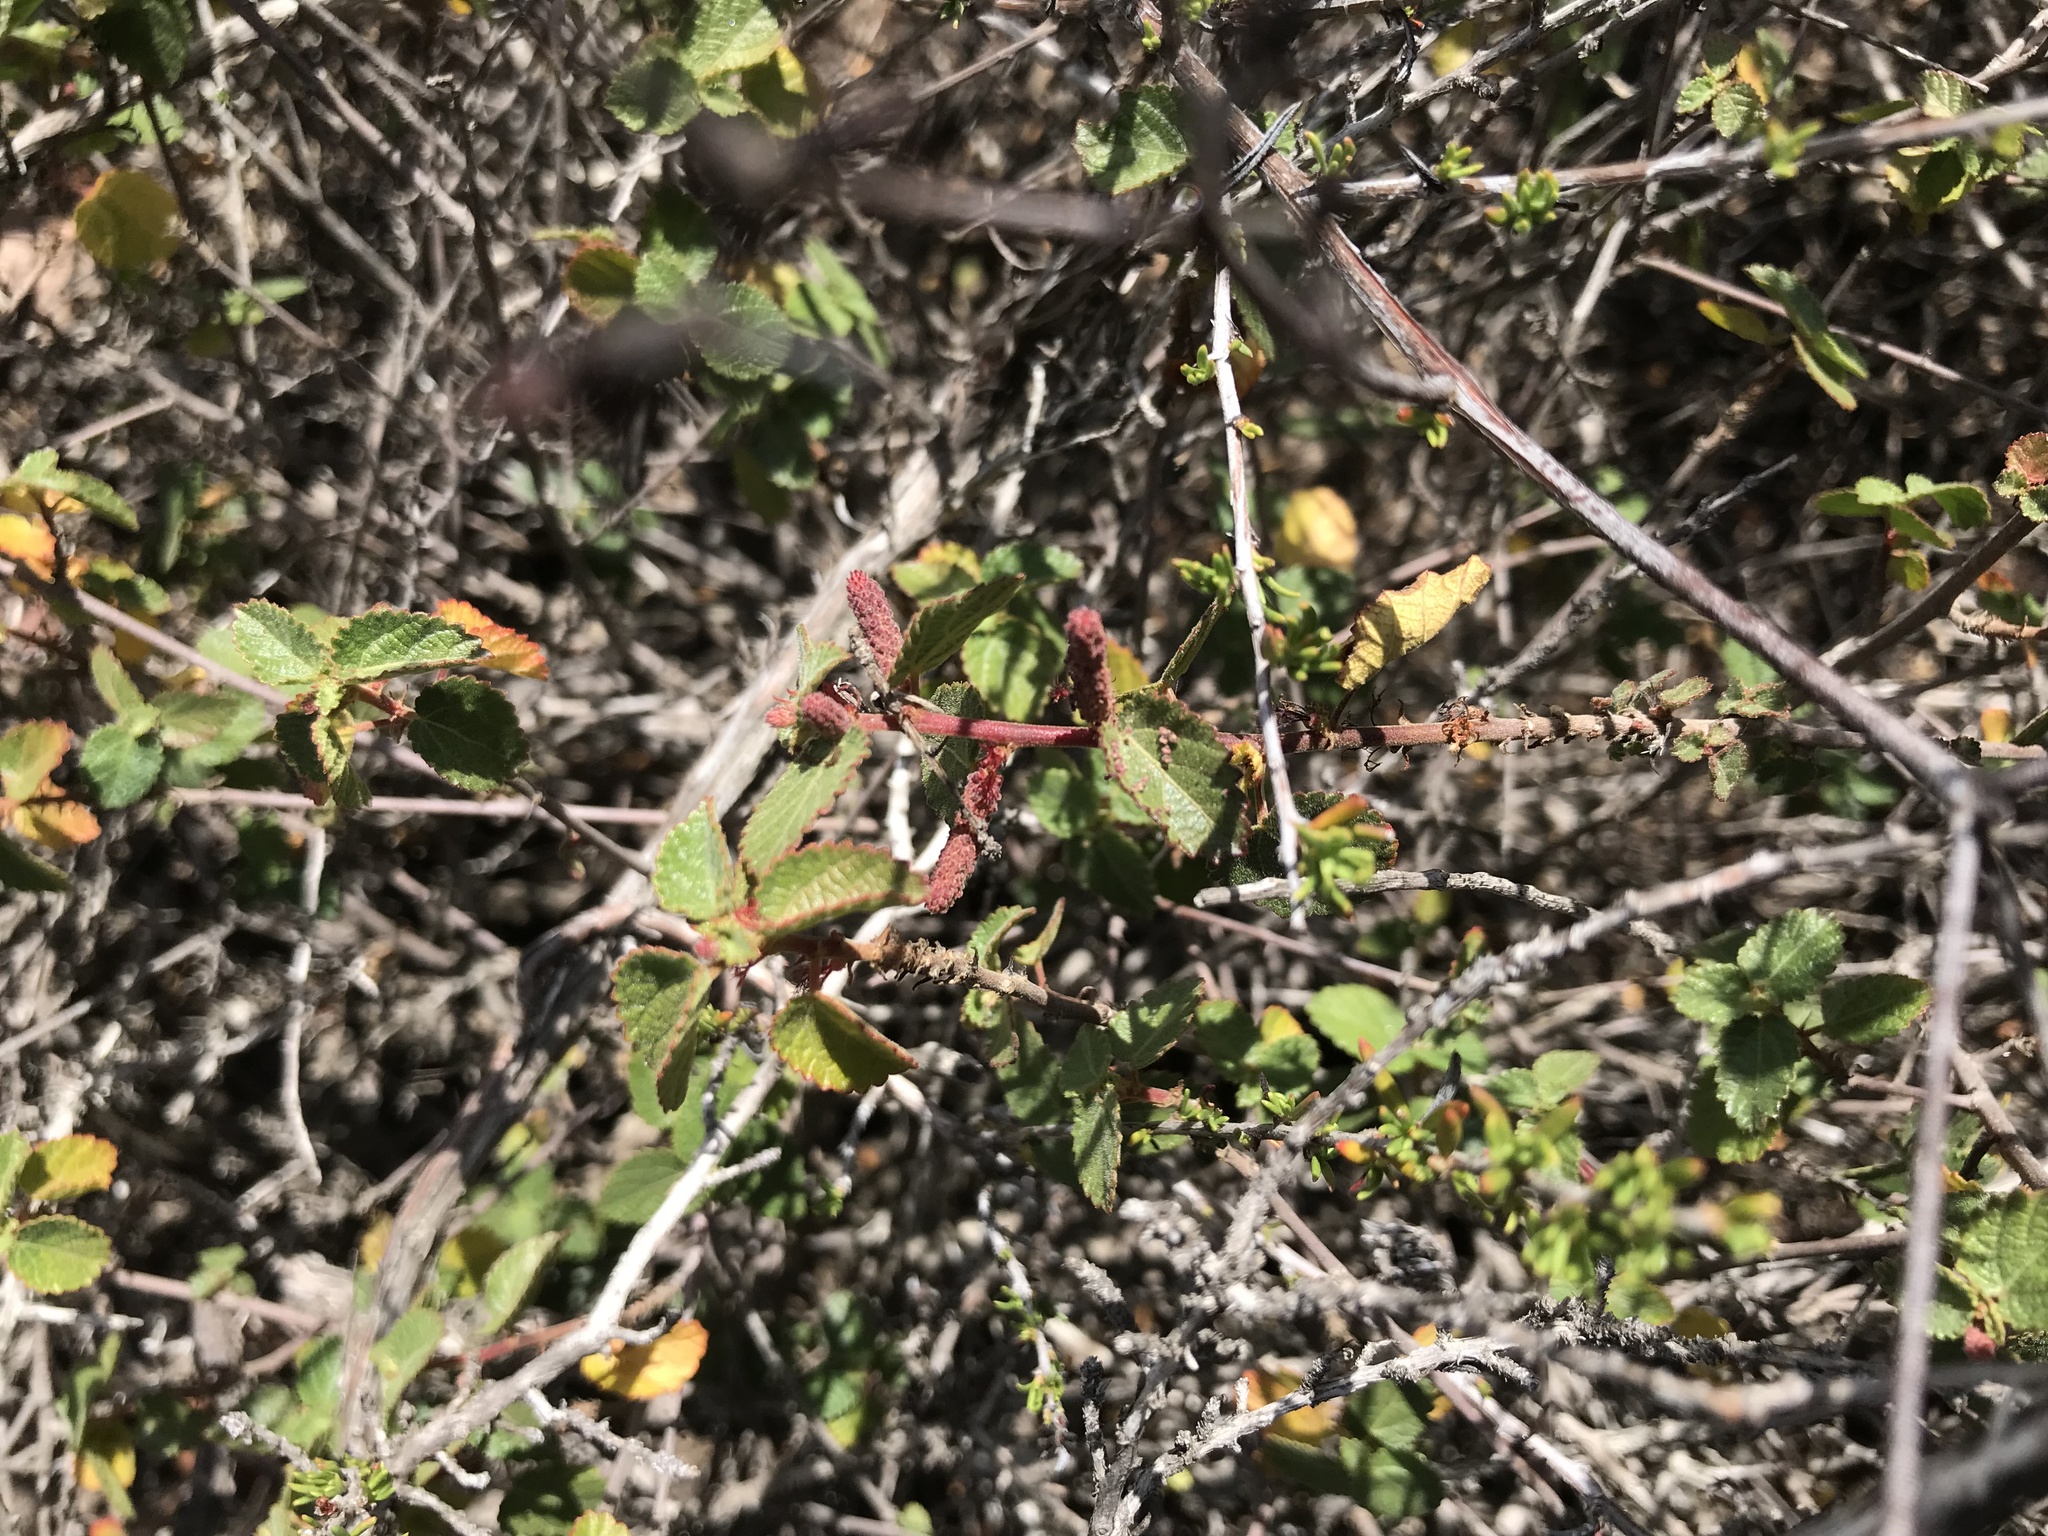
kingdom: Plantae
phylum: Tracheophyta
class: Magnoliopsida
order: Malpighiales
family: Euphorbiaceae
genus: Acalypha
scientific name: Acalypha californica
